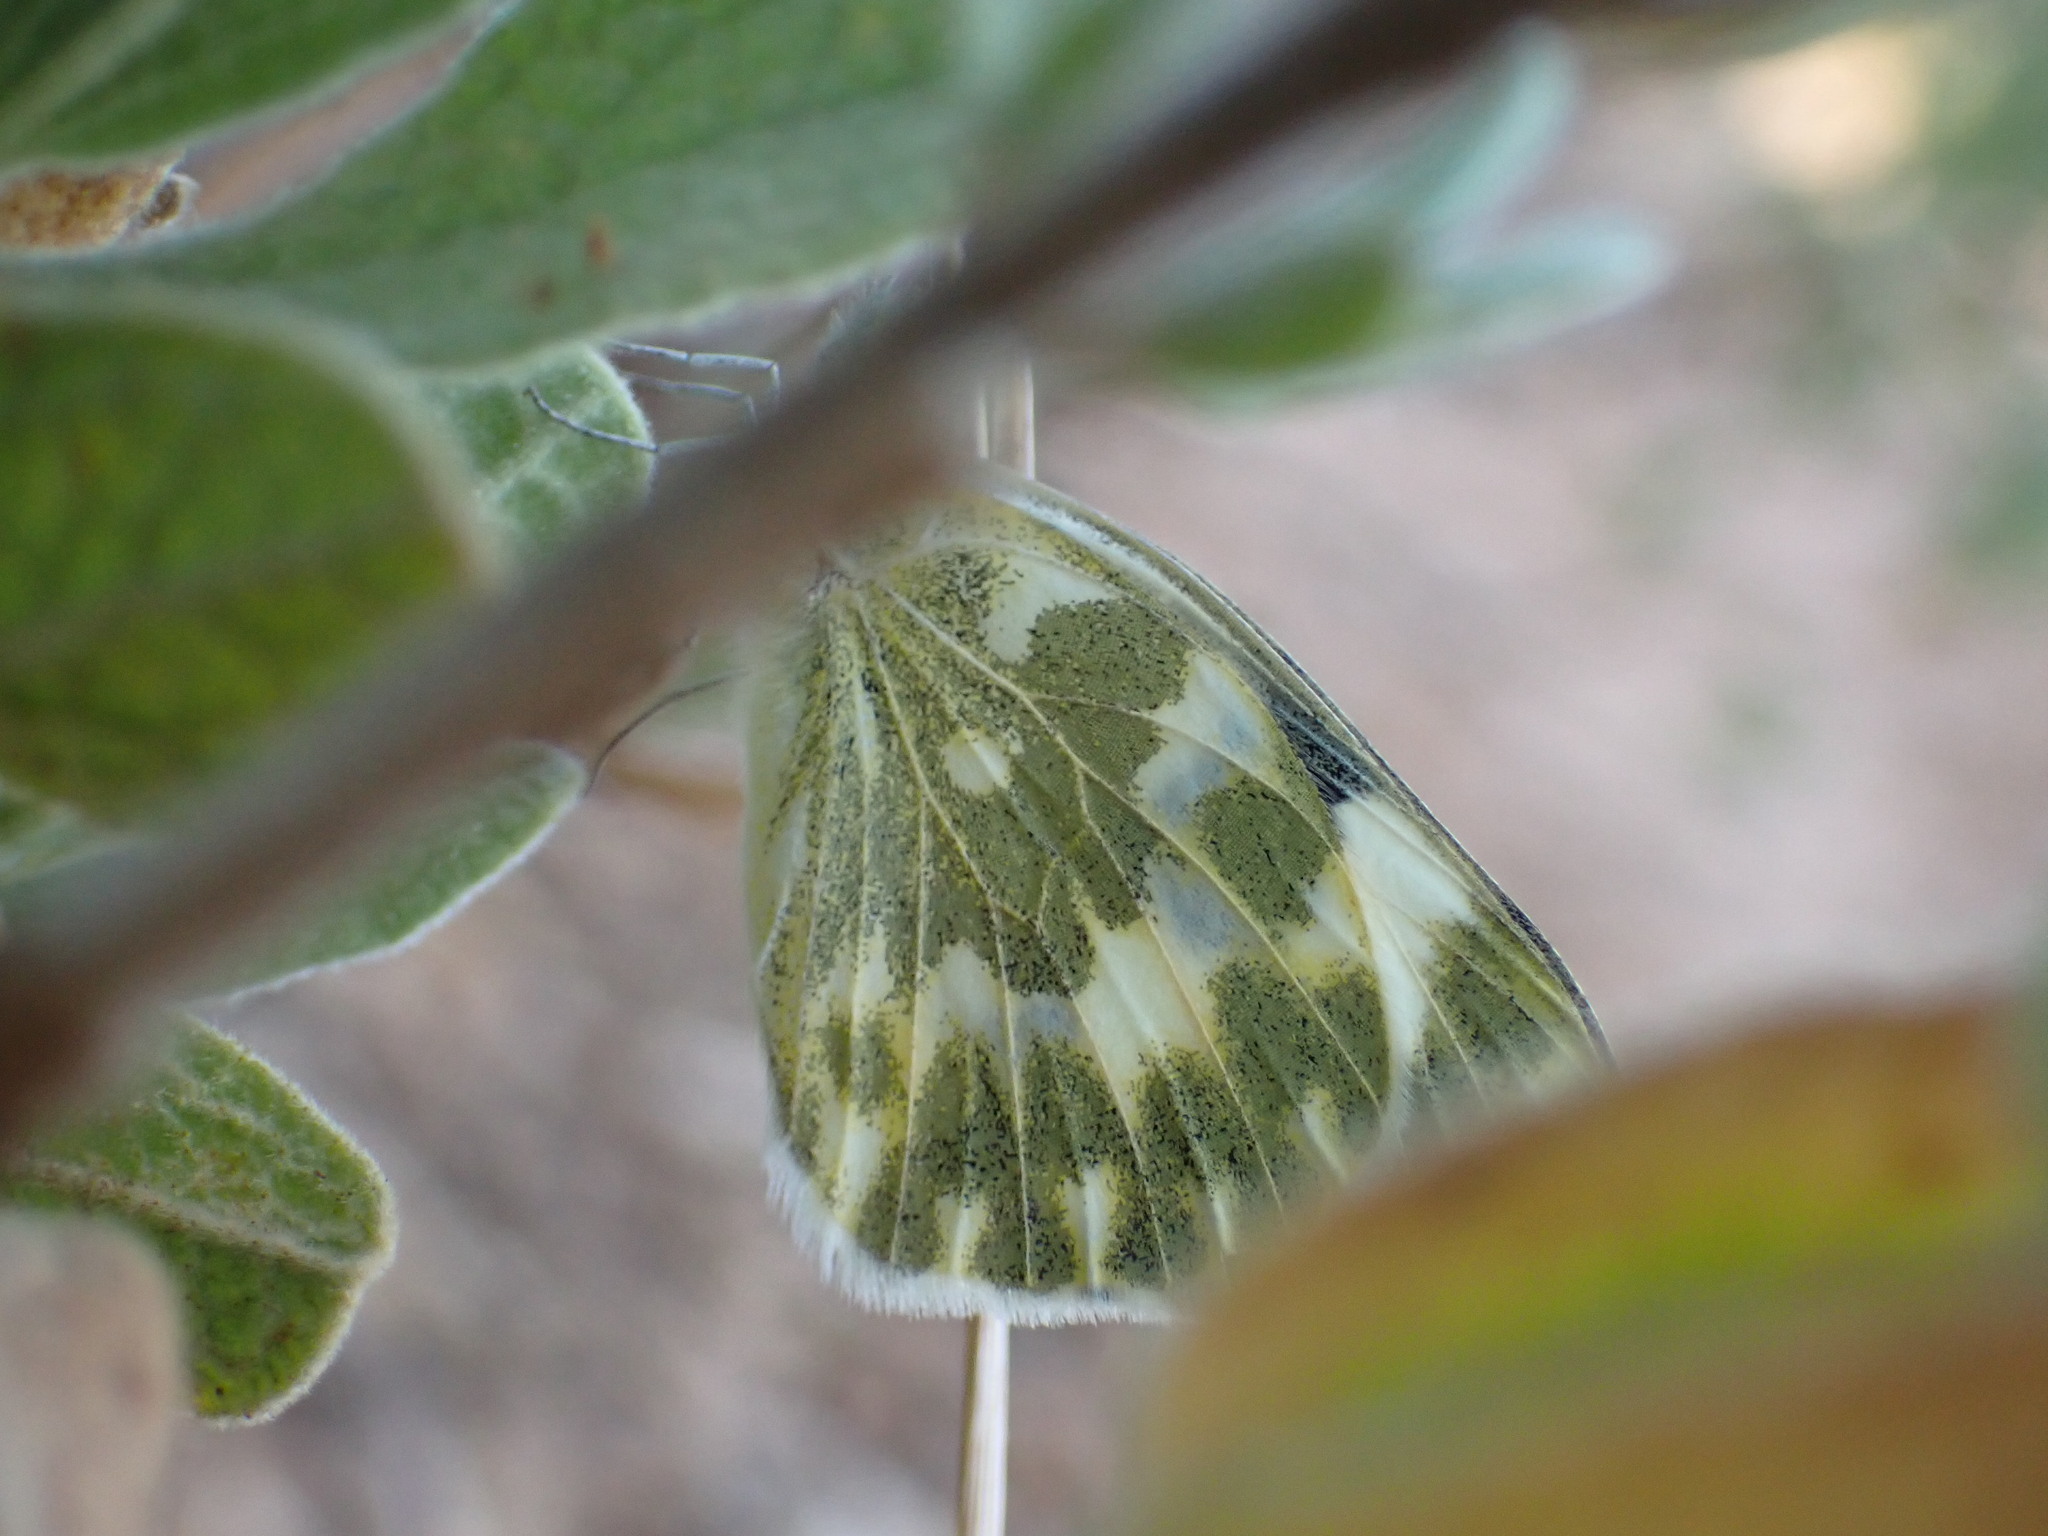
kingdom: Animalia
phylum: Arthropoda
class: Insecta
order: Lepidoptera
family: Pieridae
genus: Pontia
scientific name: Pontia daplidice
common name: Bath white
